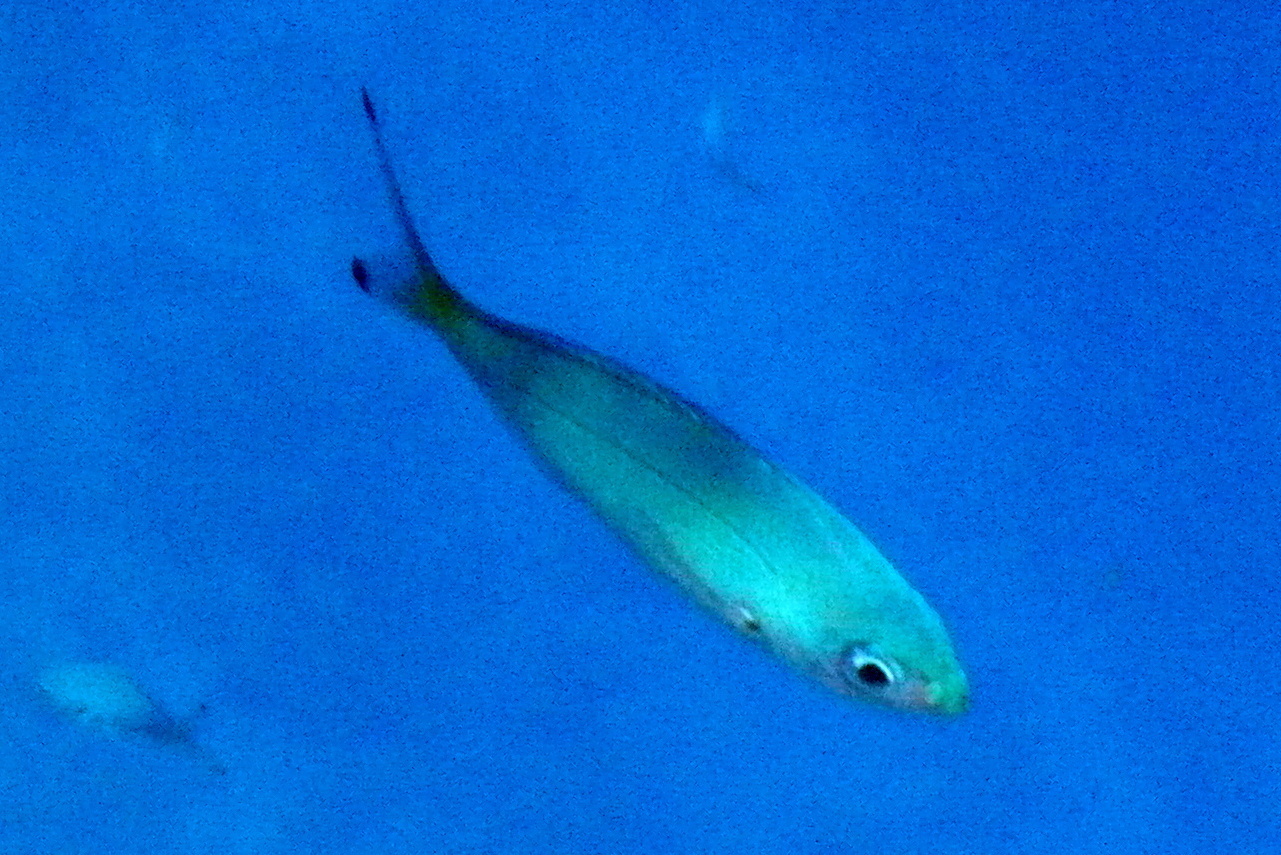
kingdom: Animalia
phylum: Chordata
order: Perciformes
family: Caesionidae
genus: Caesio
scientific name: Caesio lunaris
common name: Blue fusilier
